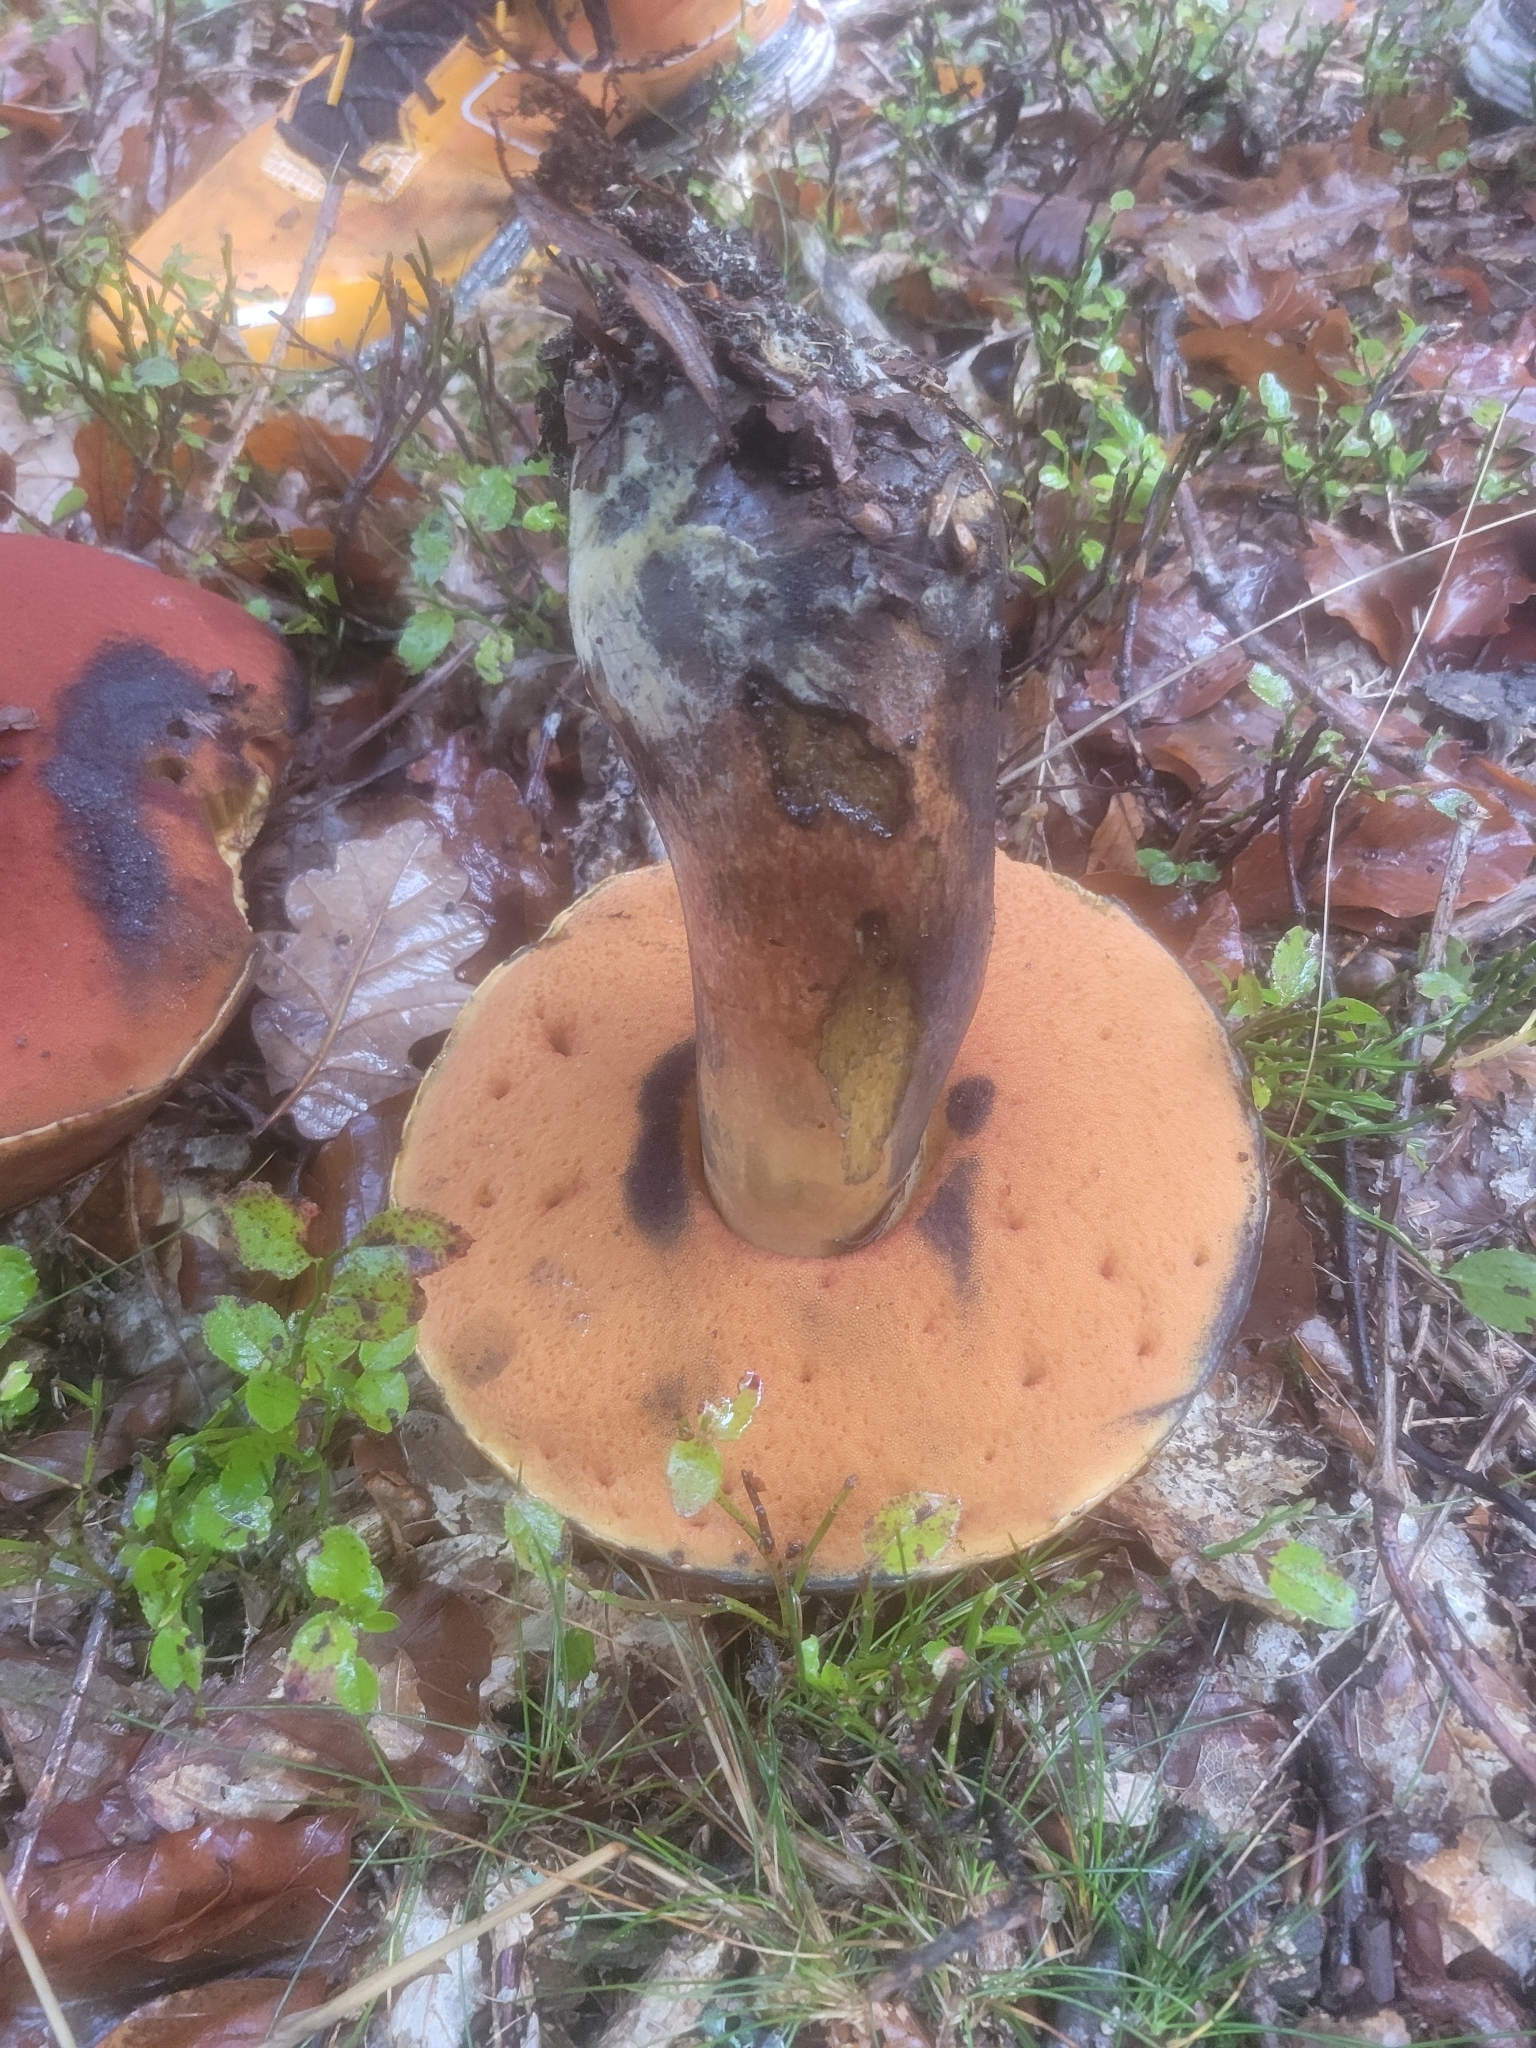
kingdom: Fungi
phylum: Basidiomycota
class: Agaricomycetes
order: Boletales
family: Boletaceae
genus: Neoboletus
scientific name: Neoboletus erythropus
